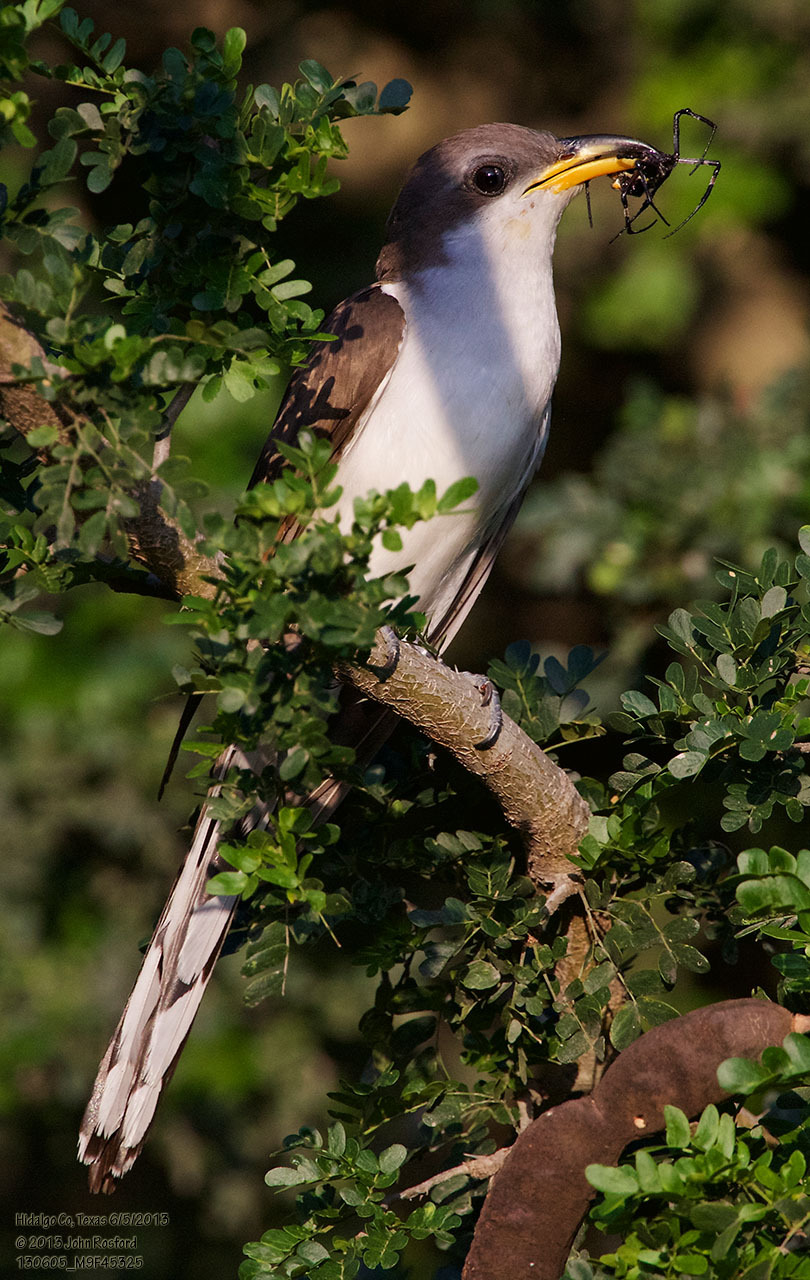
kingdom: Animalia
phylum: Chordata
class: Aves
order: Cuculiformes
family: Cuculidae
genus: Coccyzus
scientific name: Coccyzus americanus
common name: Yellow-billed cuckoo
